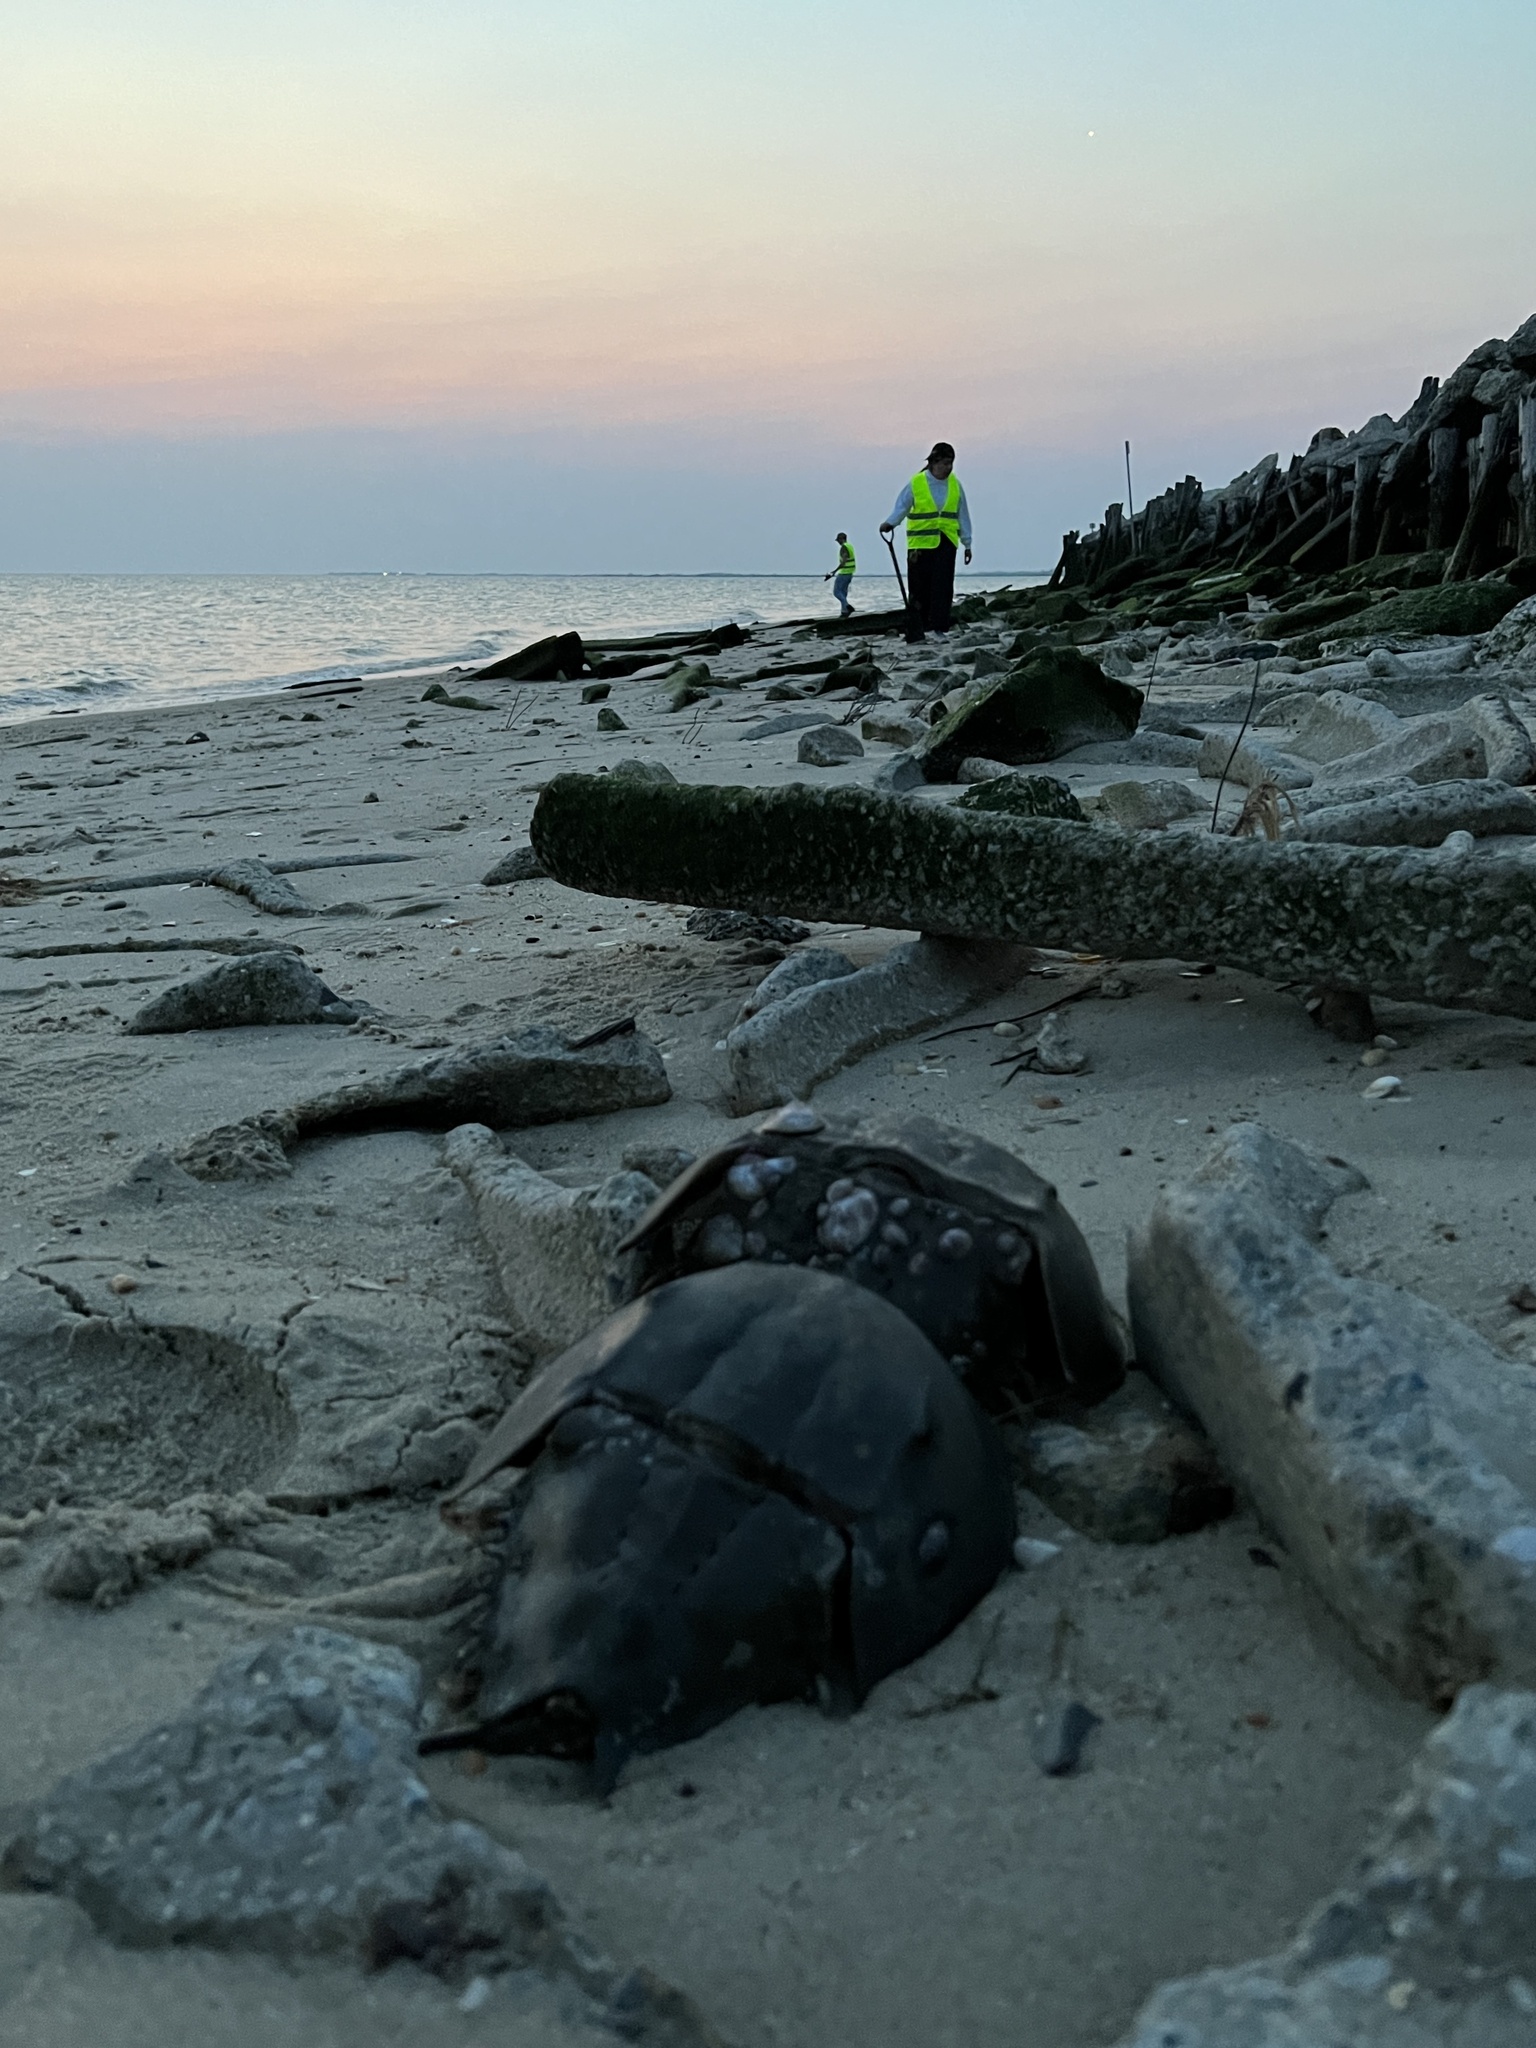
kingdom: Animalia
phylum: Arthropoda
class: Merostomata
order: Xiphosurida
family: Limulidae
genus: Limulus
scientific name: Limulus polyphemus
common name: Horseshoe crab
